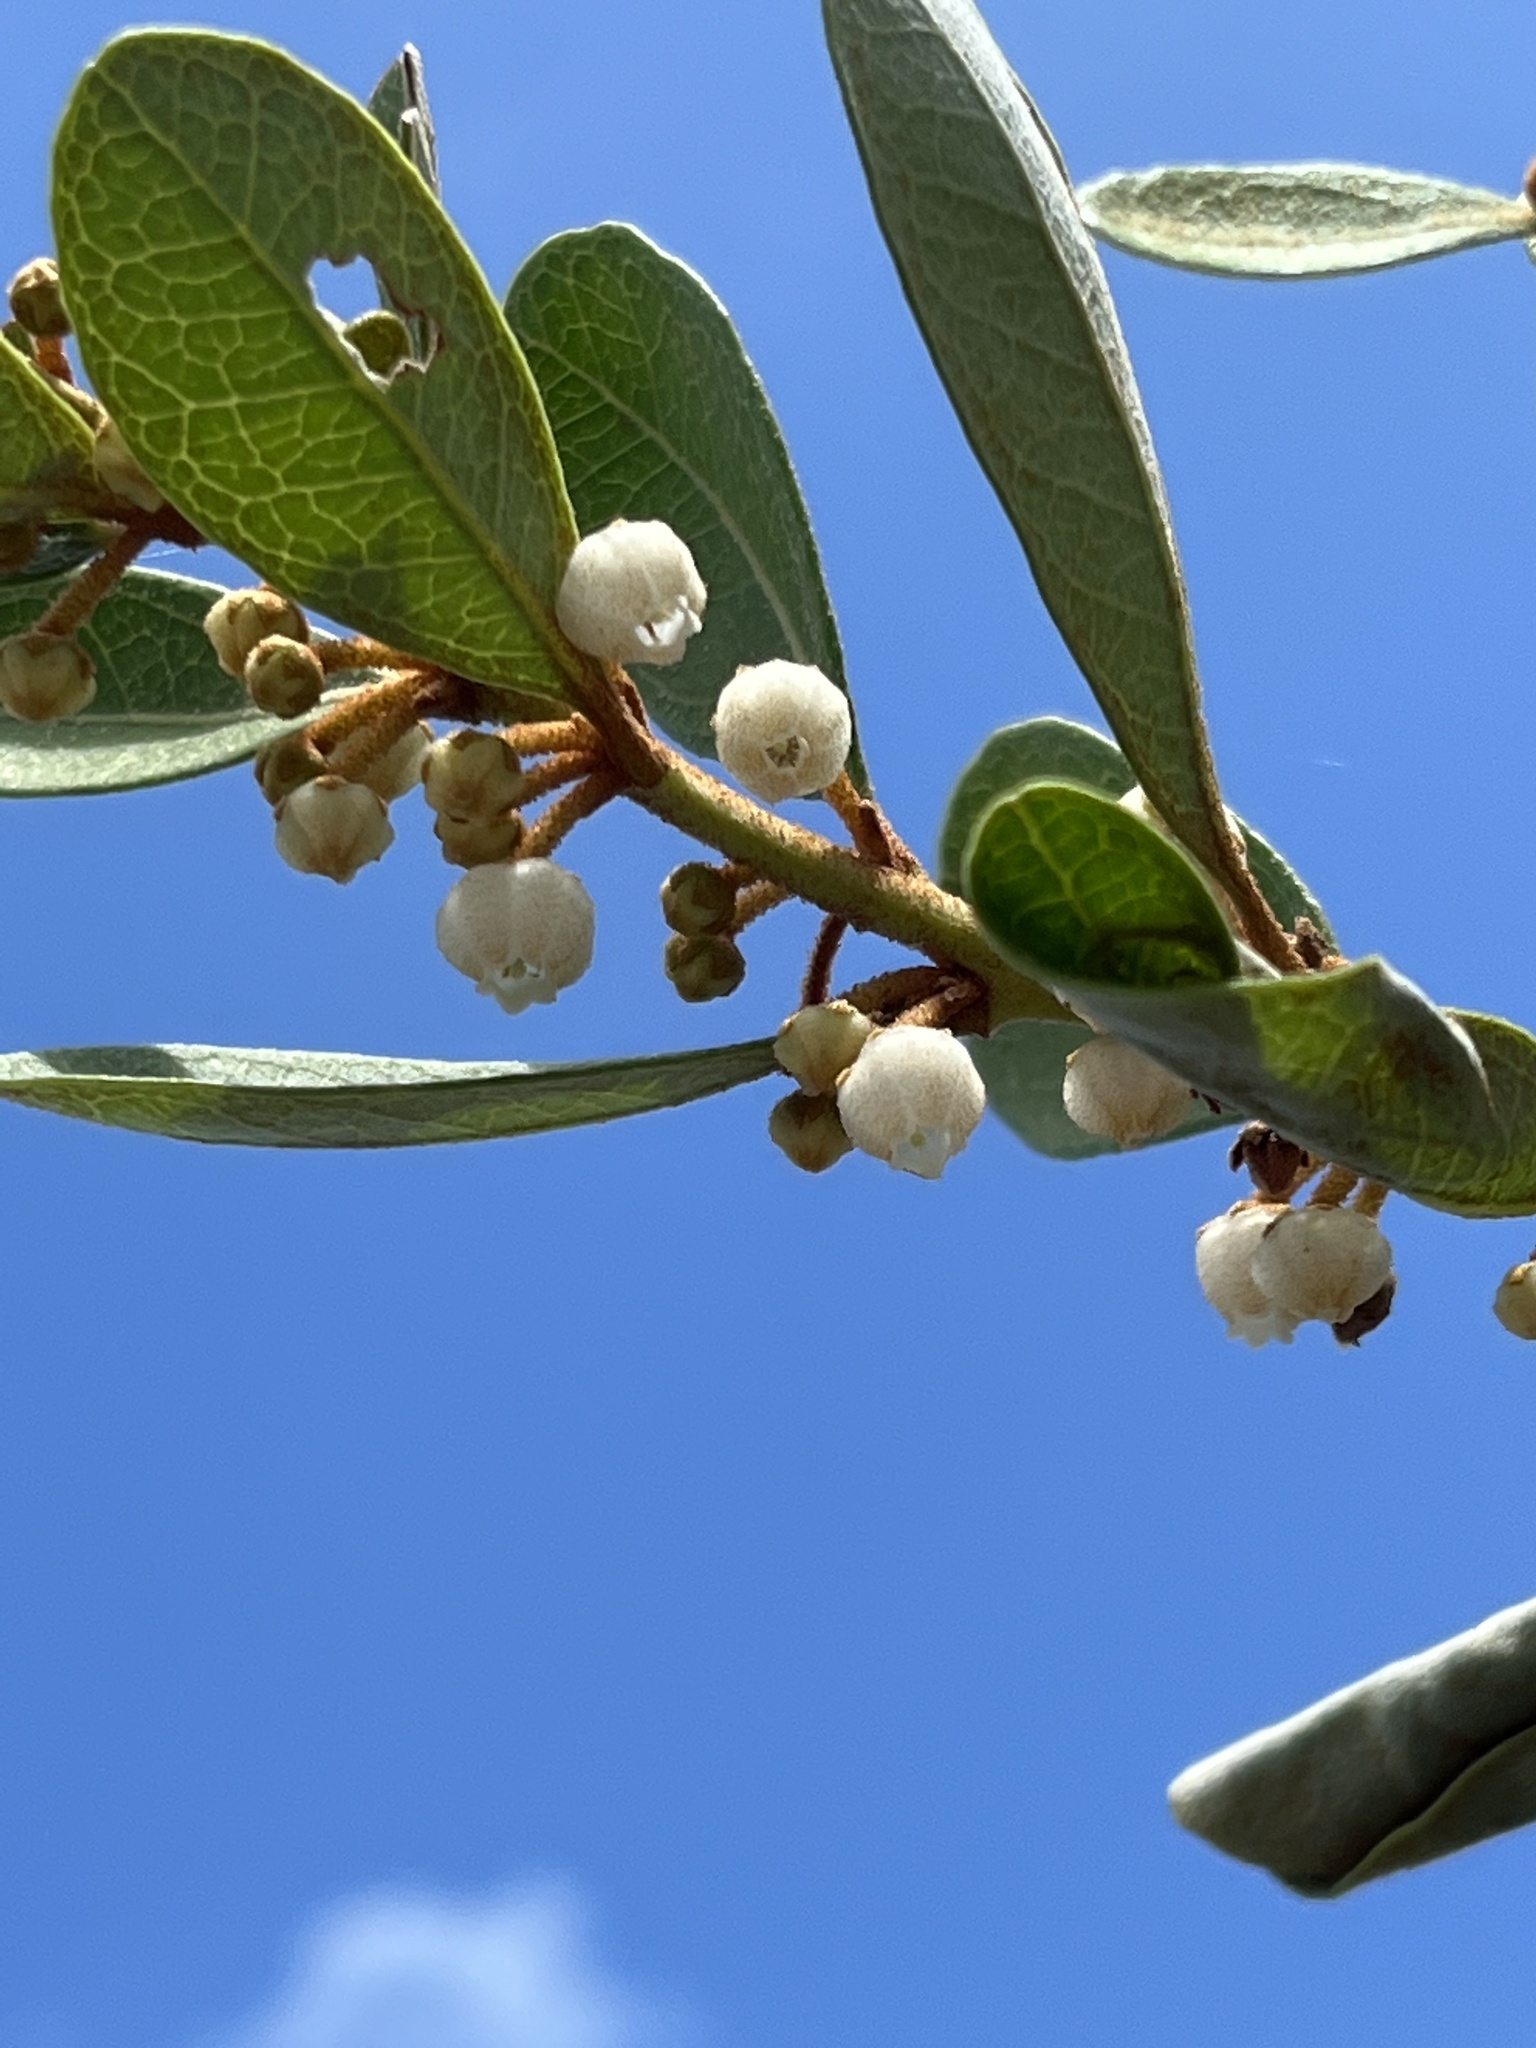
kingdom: Plantae
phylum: Tracheophyta
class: Magnoliopsida
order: Ericales
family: Ericaceae
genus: Lyonia
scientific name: Lyonia fruticosa
